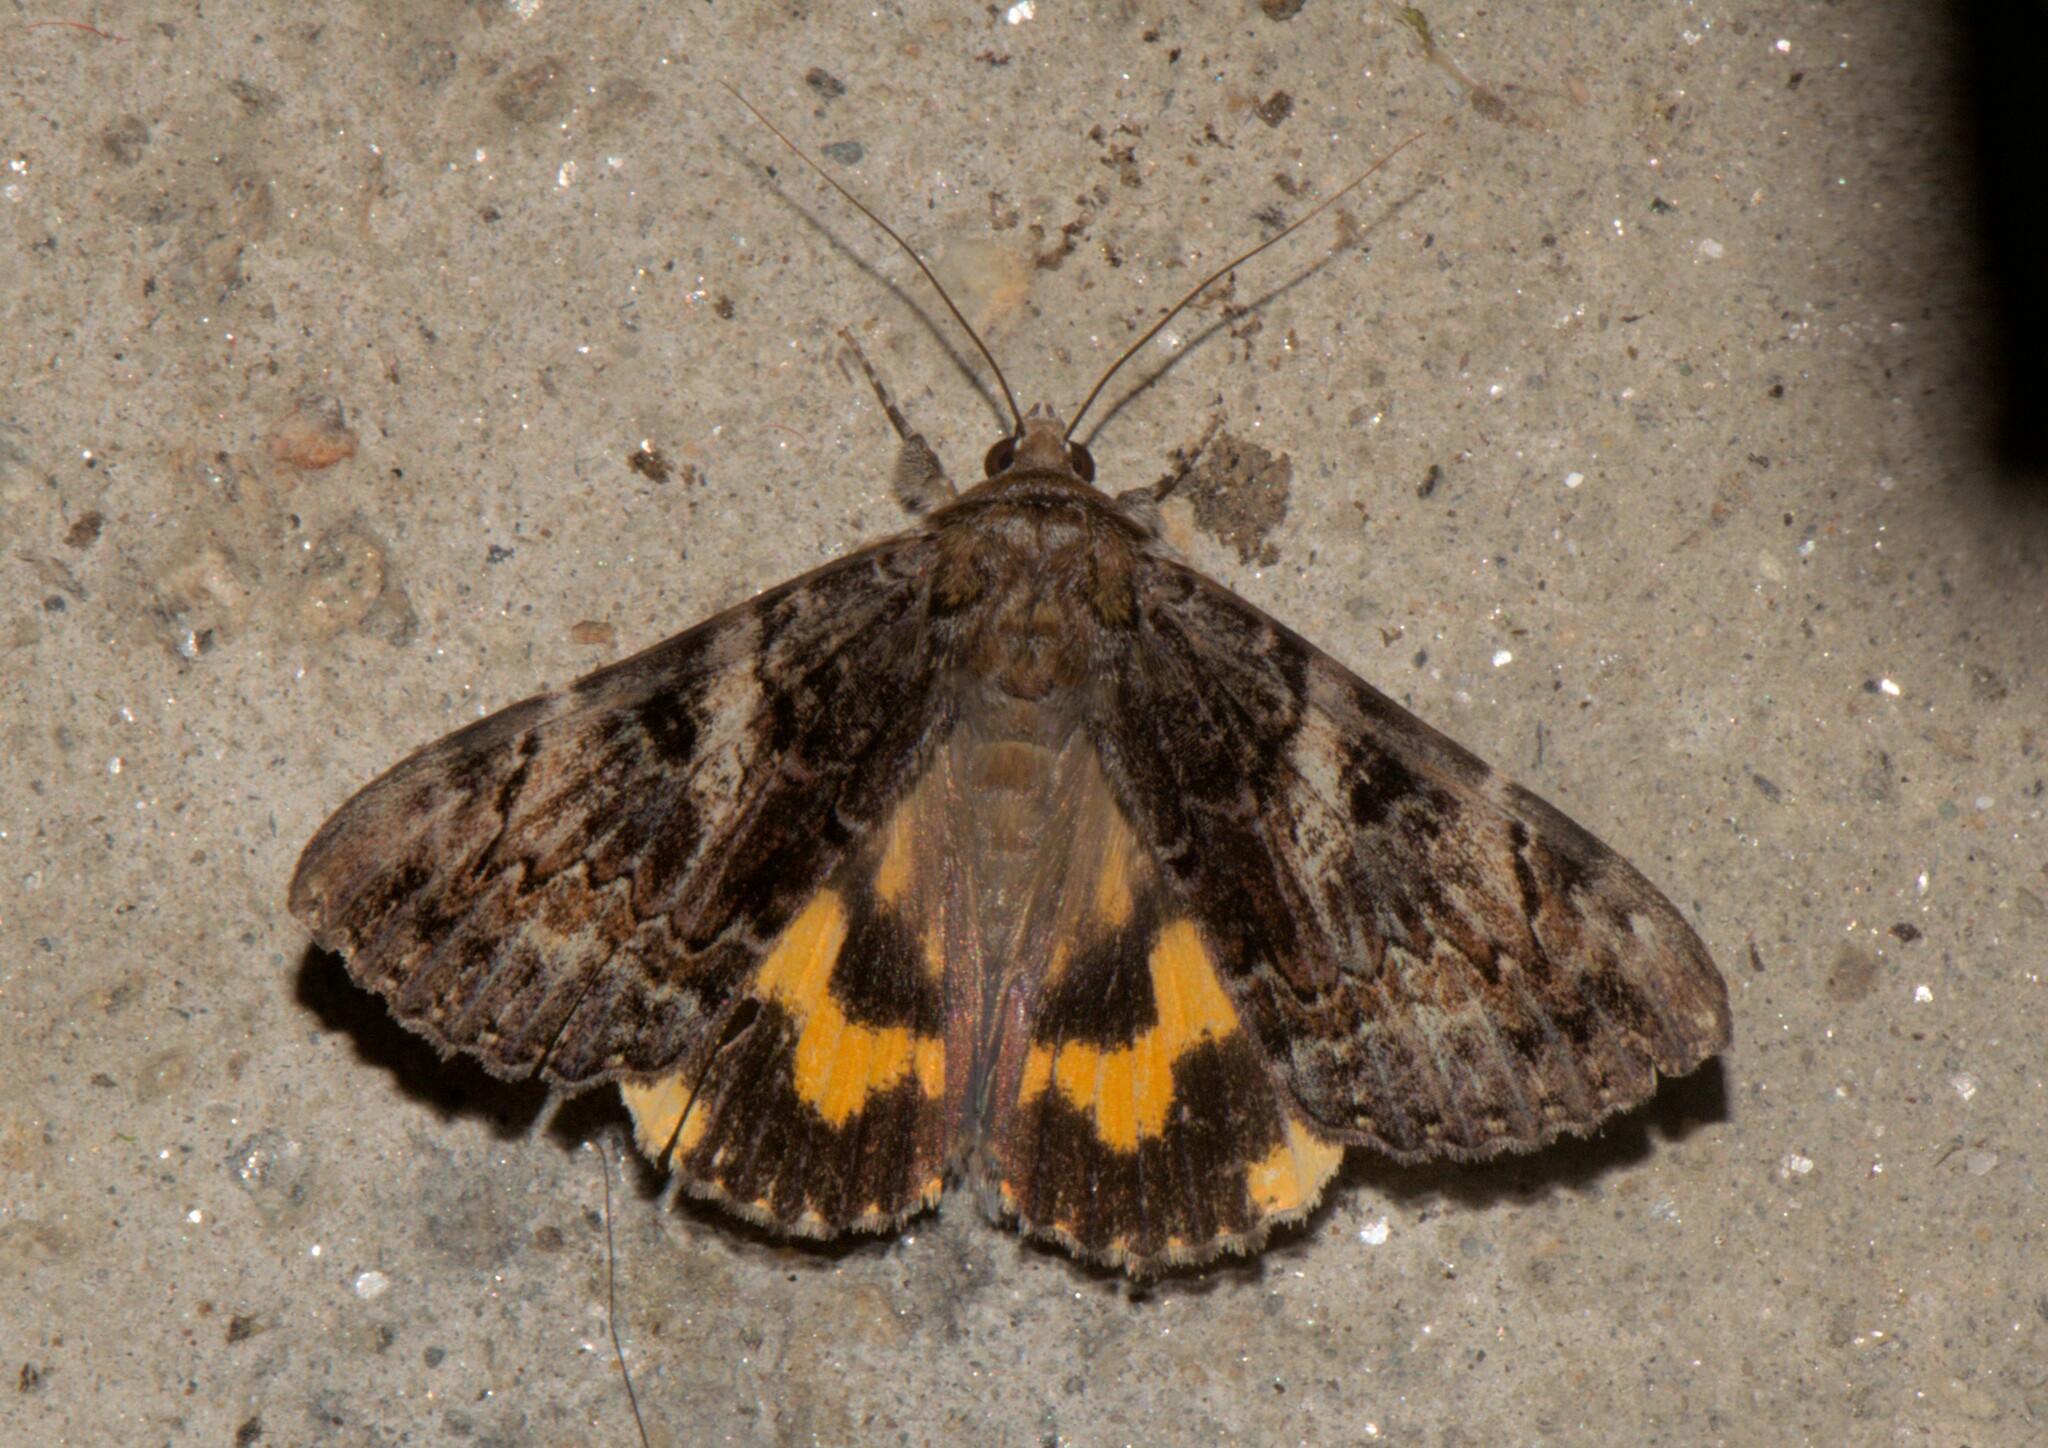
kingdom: Animalia
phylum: Arthropoda
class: Insecta
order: Lepidoptera
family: Erebidae
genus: Catocala
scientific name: Catocala tapestrina
